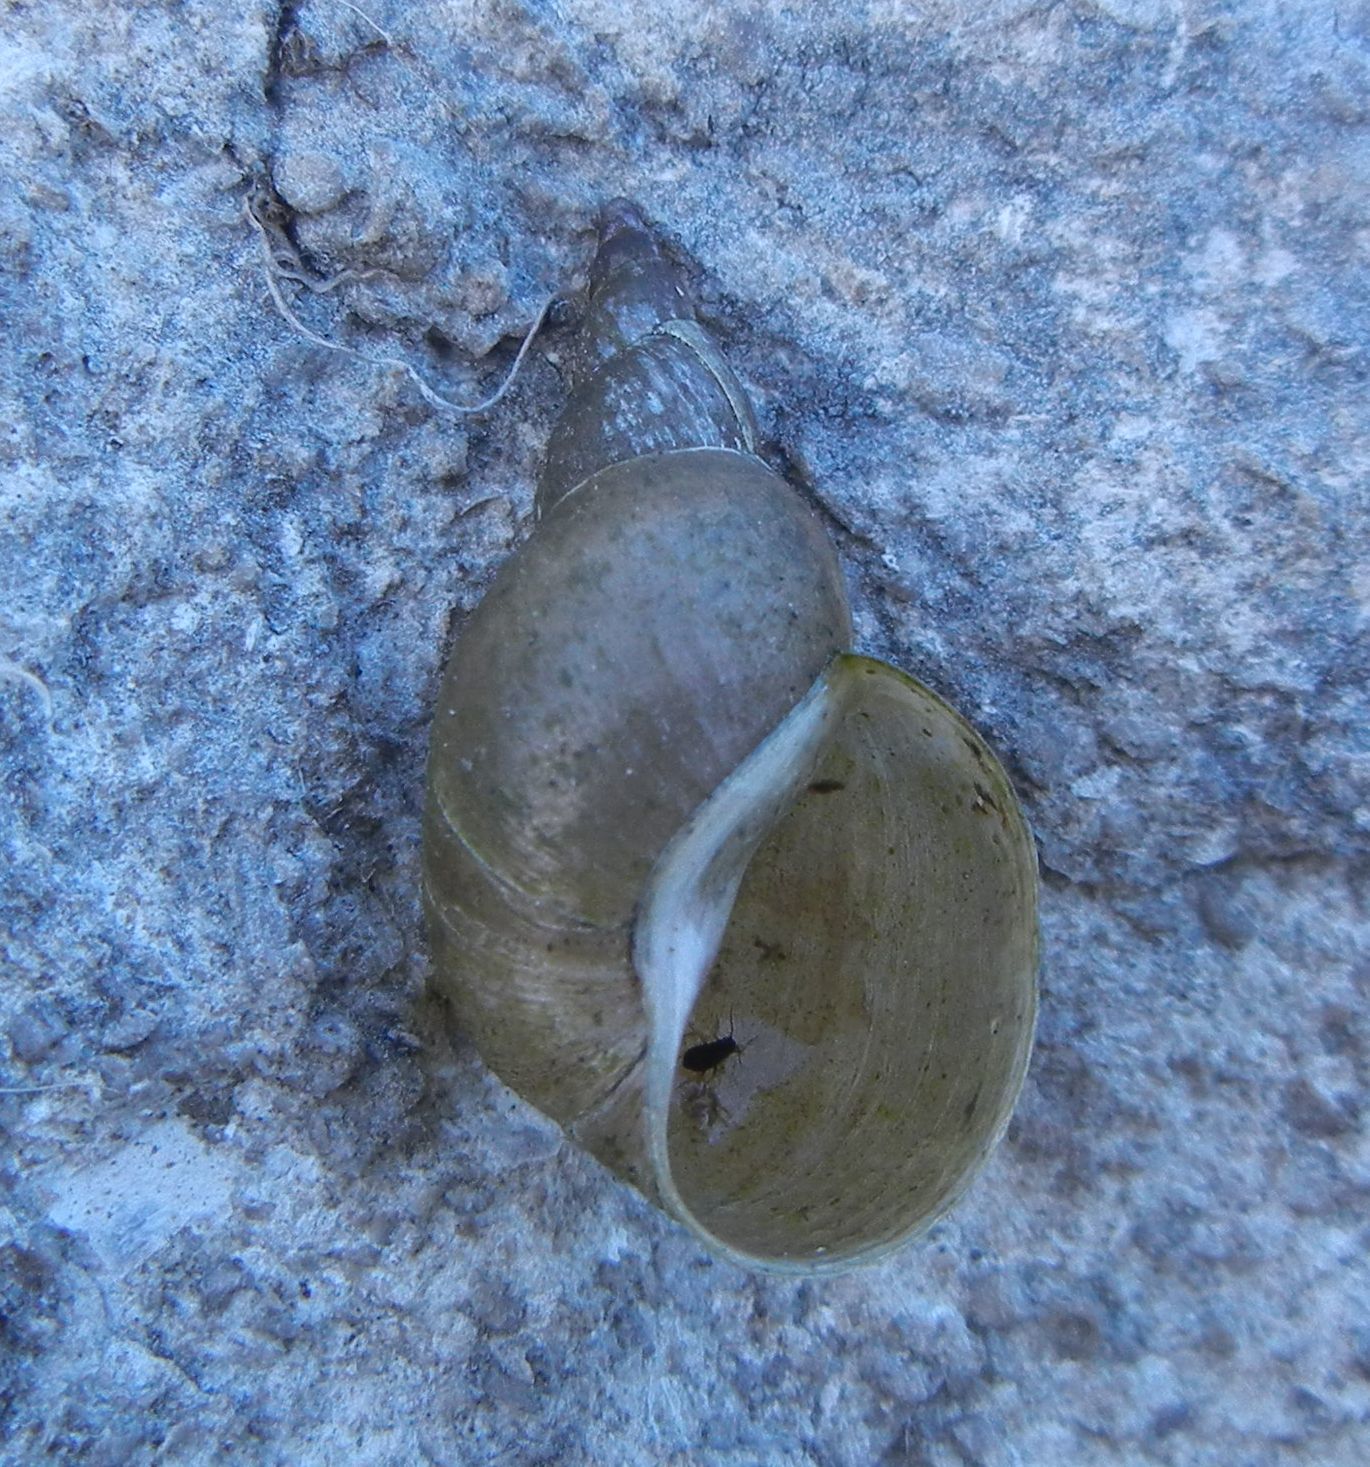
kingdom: Animalia
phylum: Mollusca
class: Gastropoda
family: Lymnaeidae
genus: Lymnaea
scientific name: Lymnaea stagnalis
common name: Great pond snail
